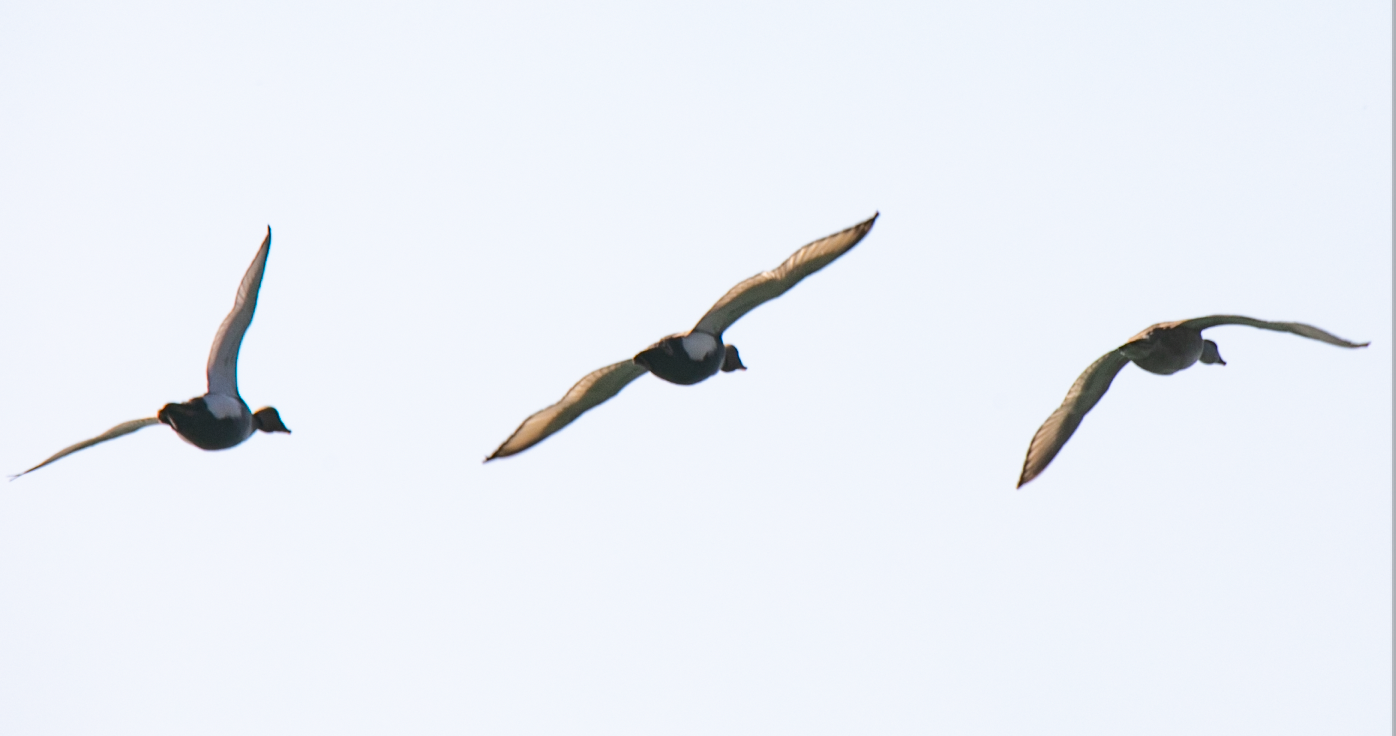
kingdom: Animalia
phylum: Chordata
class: Aves
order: Anseriformes
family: Anatidae
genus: Netta
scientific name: Netta rufina
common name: Red-crested pochard
